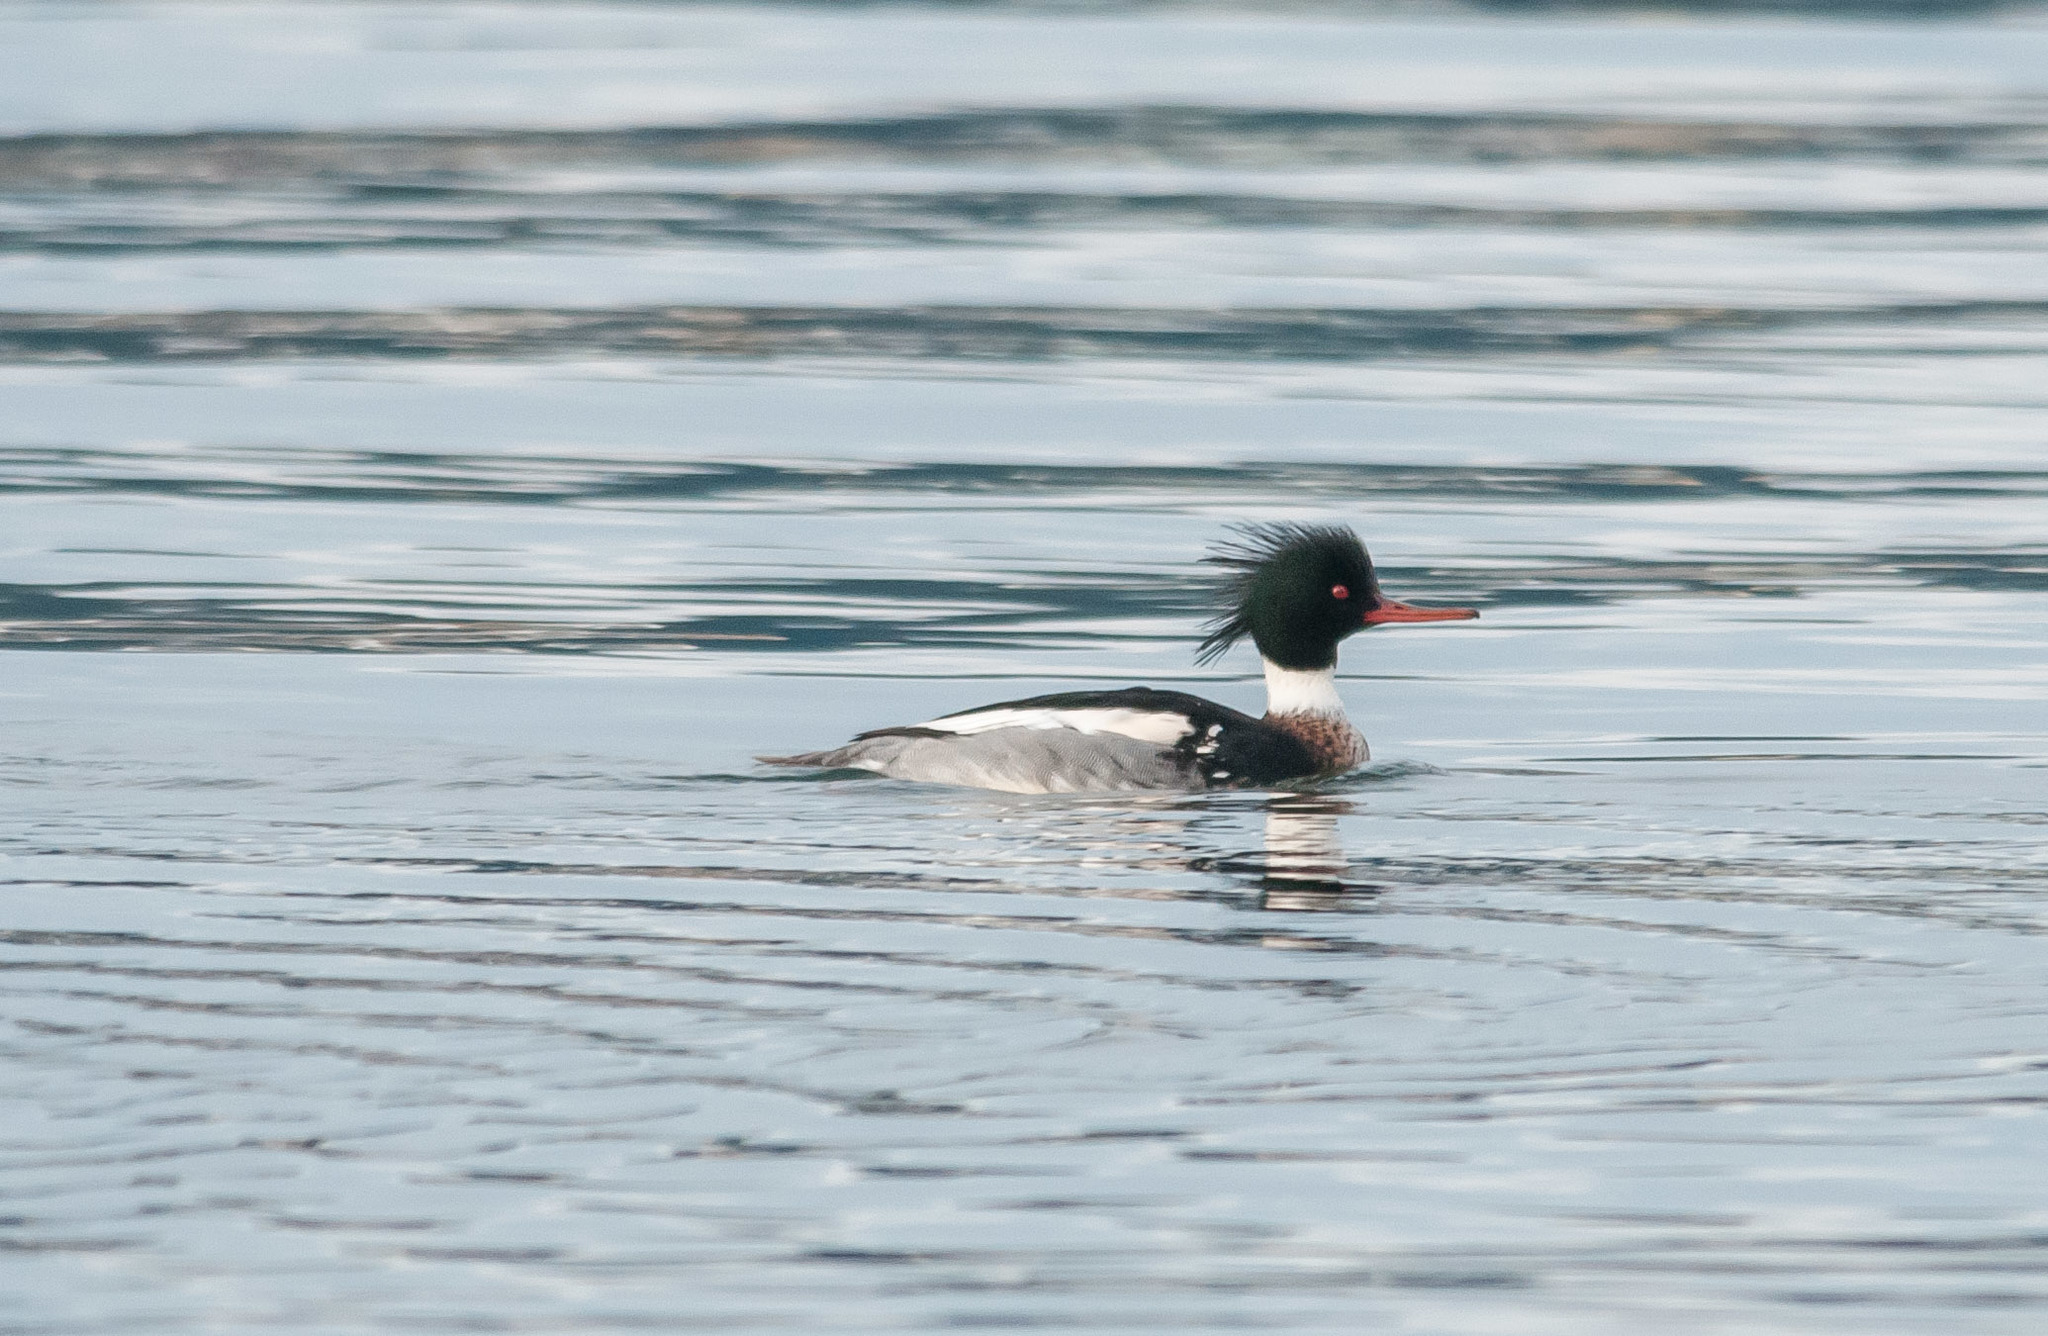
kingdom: Animalia
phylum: Chordata
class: Aves
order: Anseriformes
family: Anatidae
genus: Mergus
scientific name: Mergus serrator
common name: Red-breasted merganser
